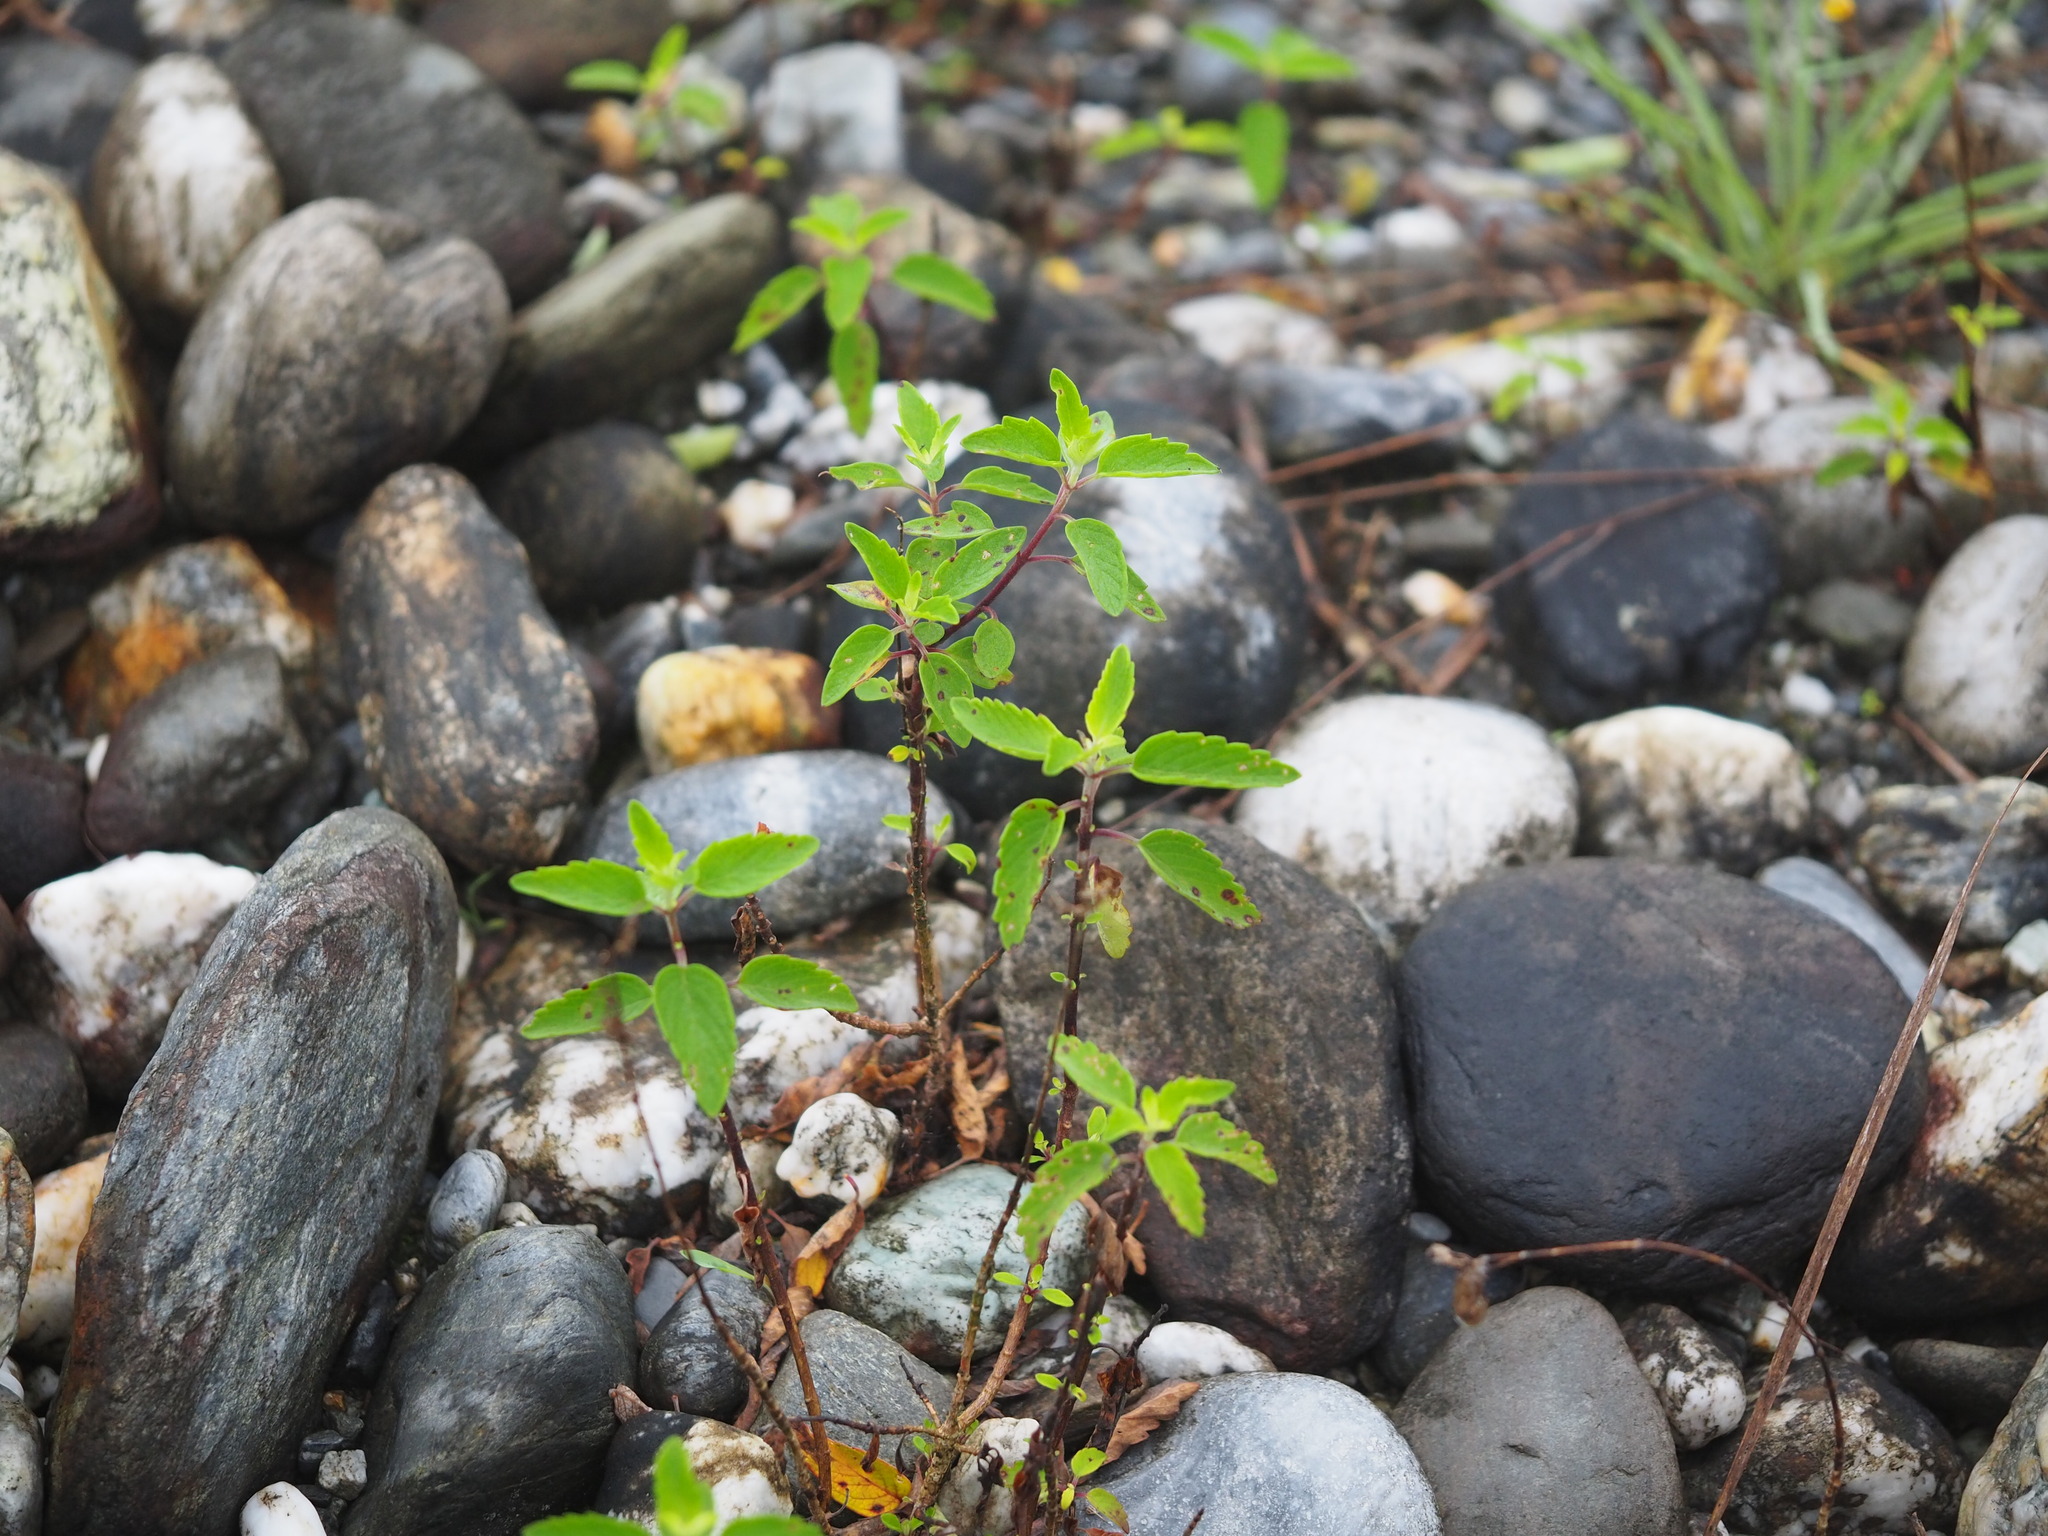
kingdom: Plantae
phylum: Tracheophyta
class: Magnoliopsida
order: Lamiales
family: Lamiaceae
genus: Caryopteris
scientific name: Caryopteris incana
